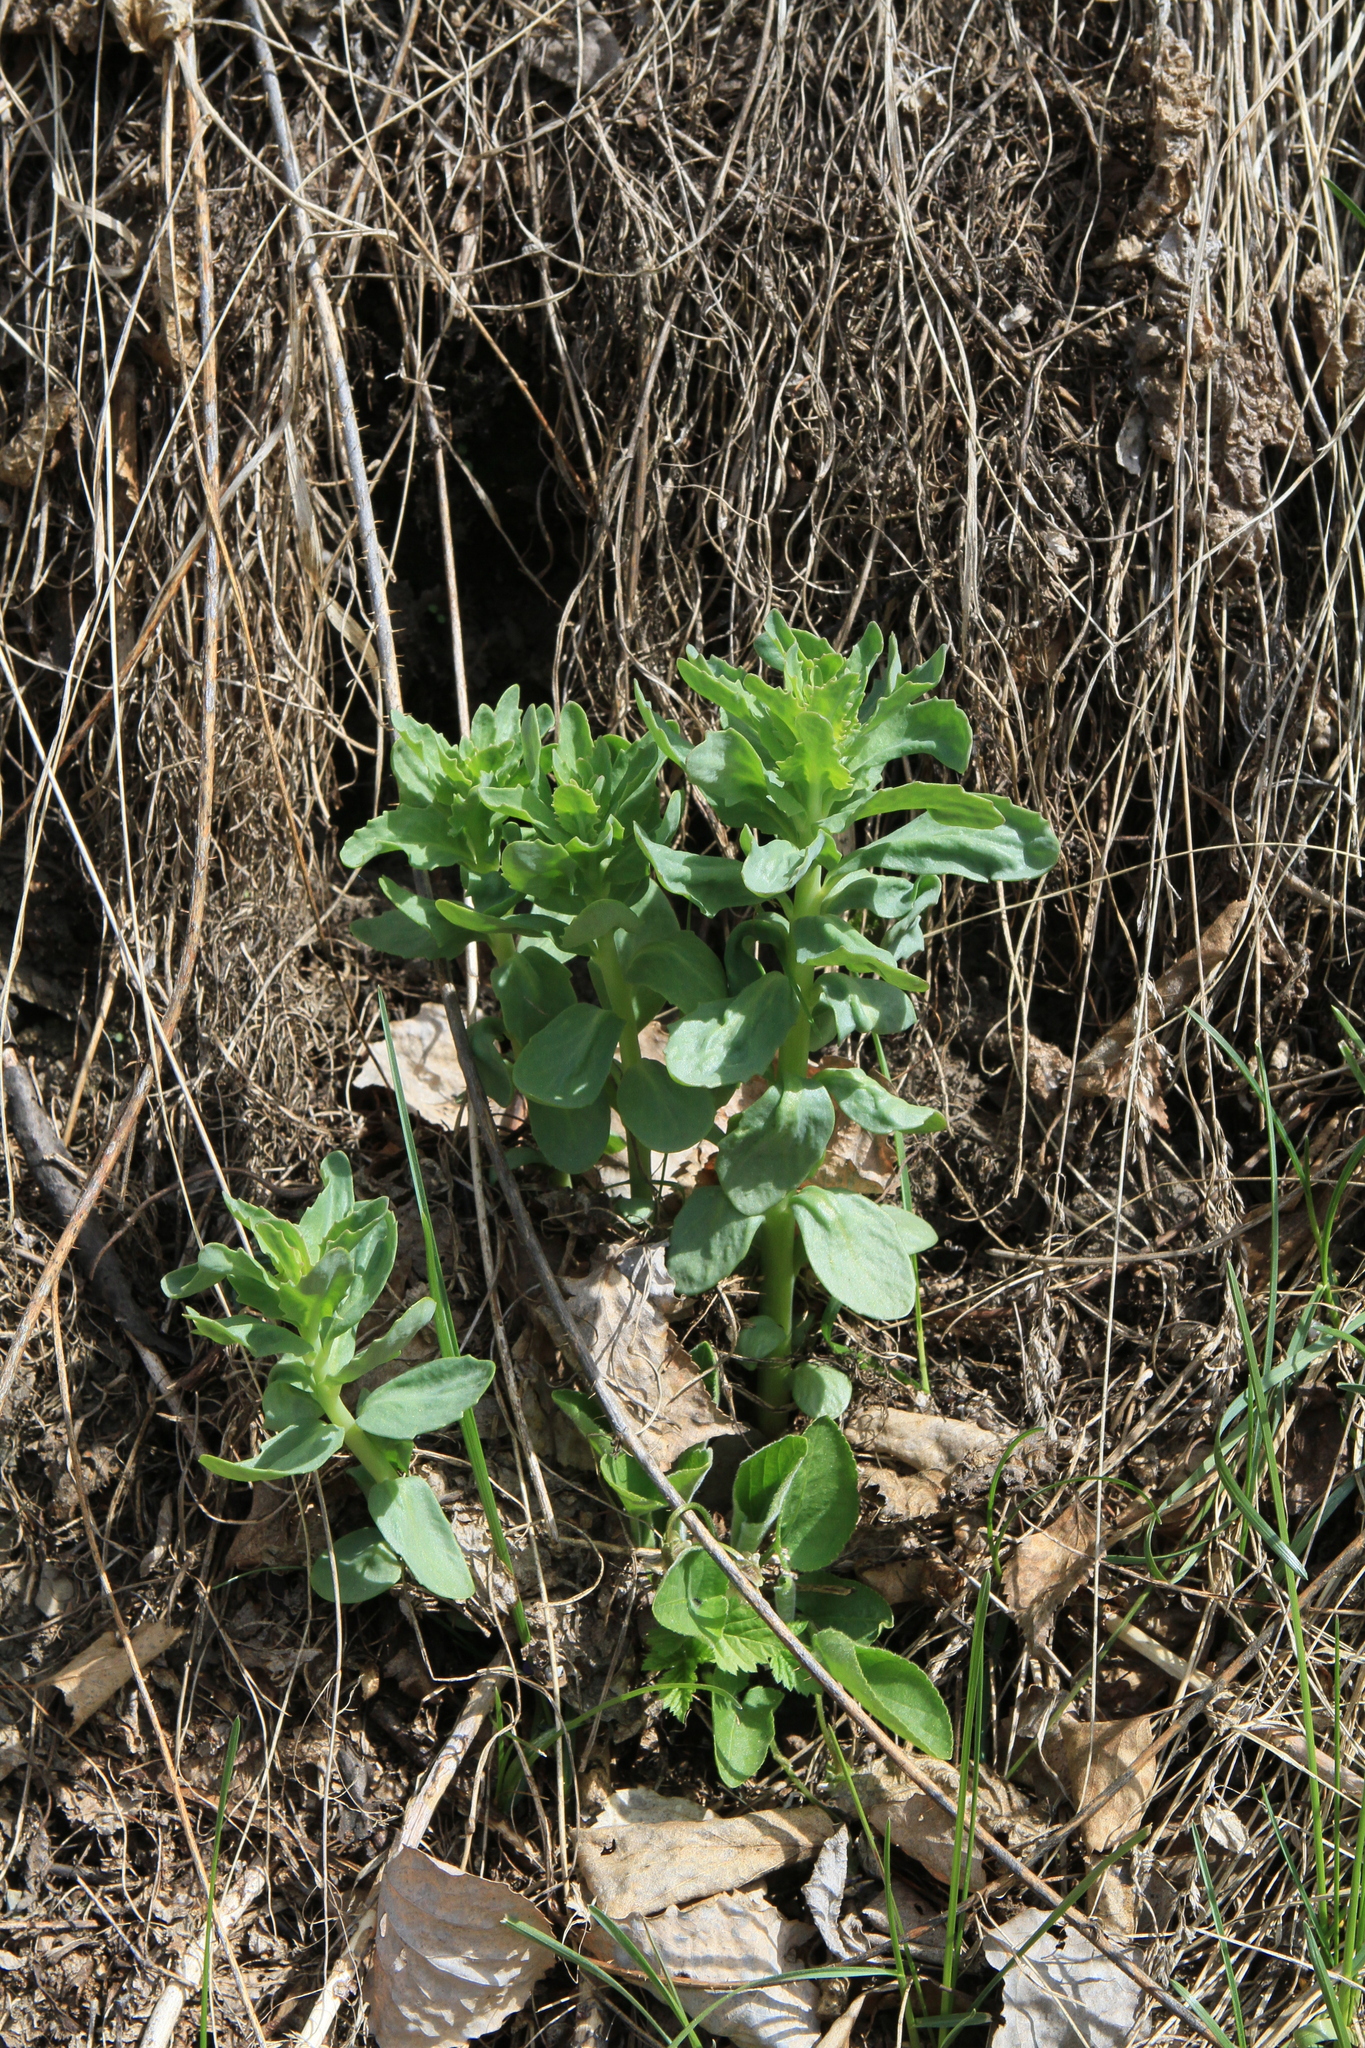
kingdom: Plantae
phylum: Tracheophyta
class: Magnoliopsida
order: Saxifragales
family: Crassulaceae
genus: Hylotelephium
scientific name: Hylotelephium telephium
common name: Live-forever
